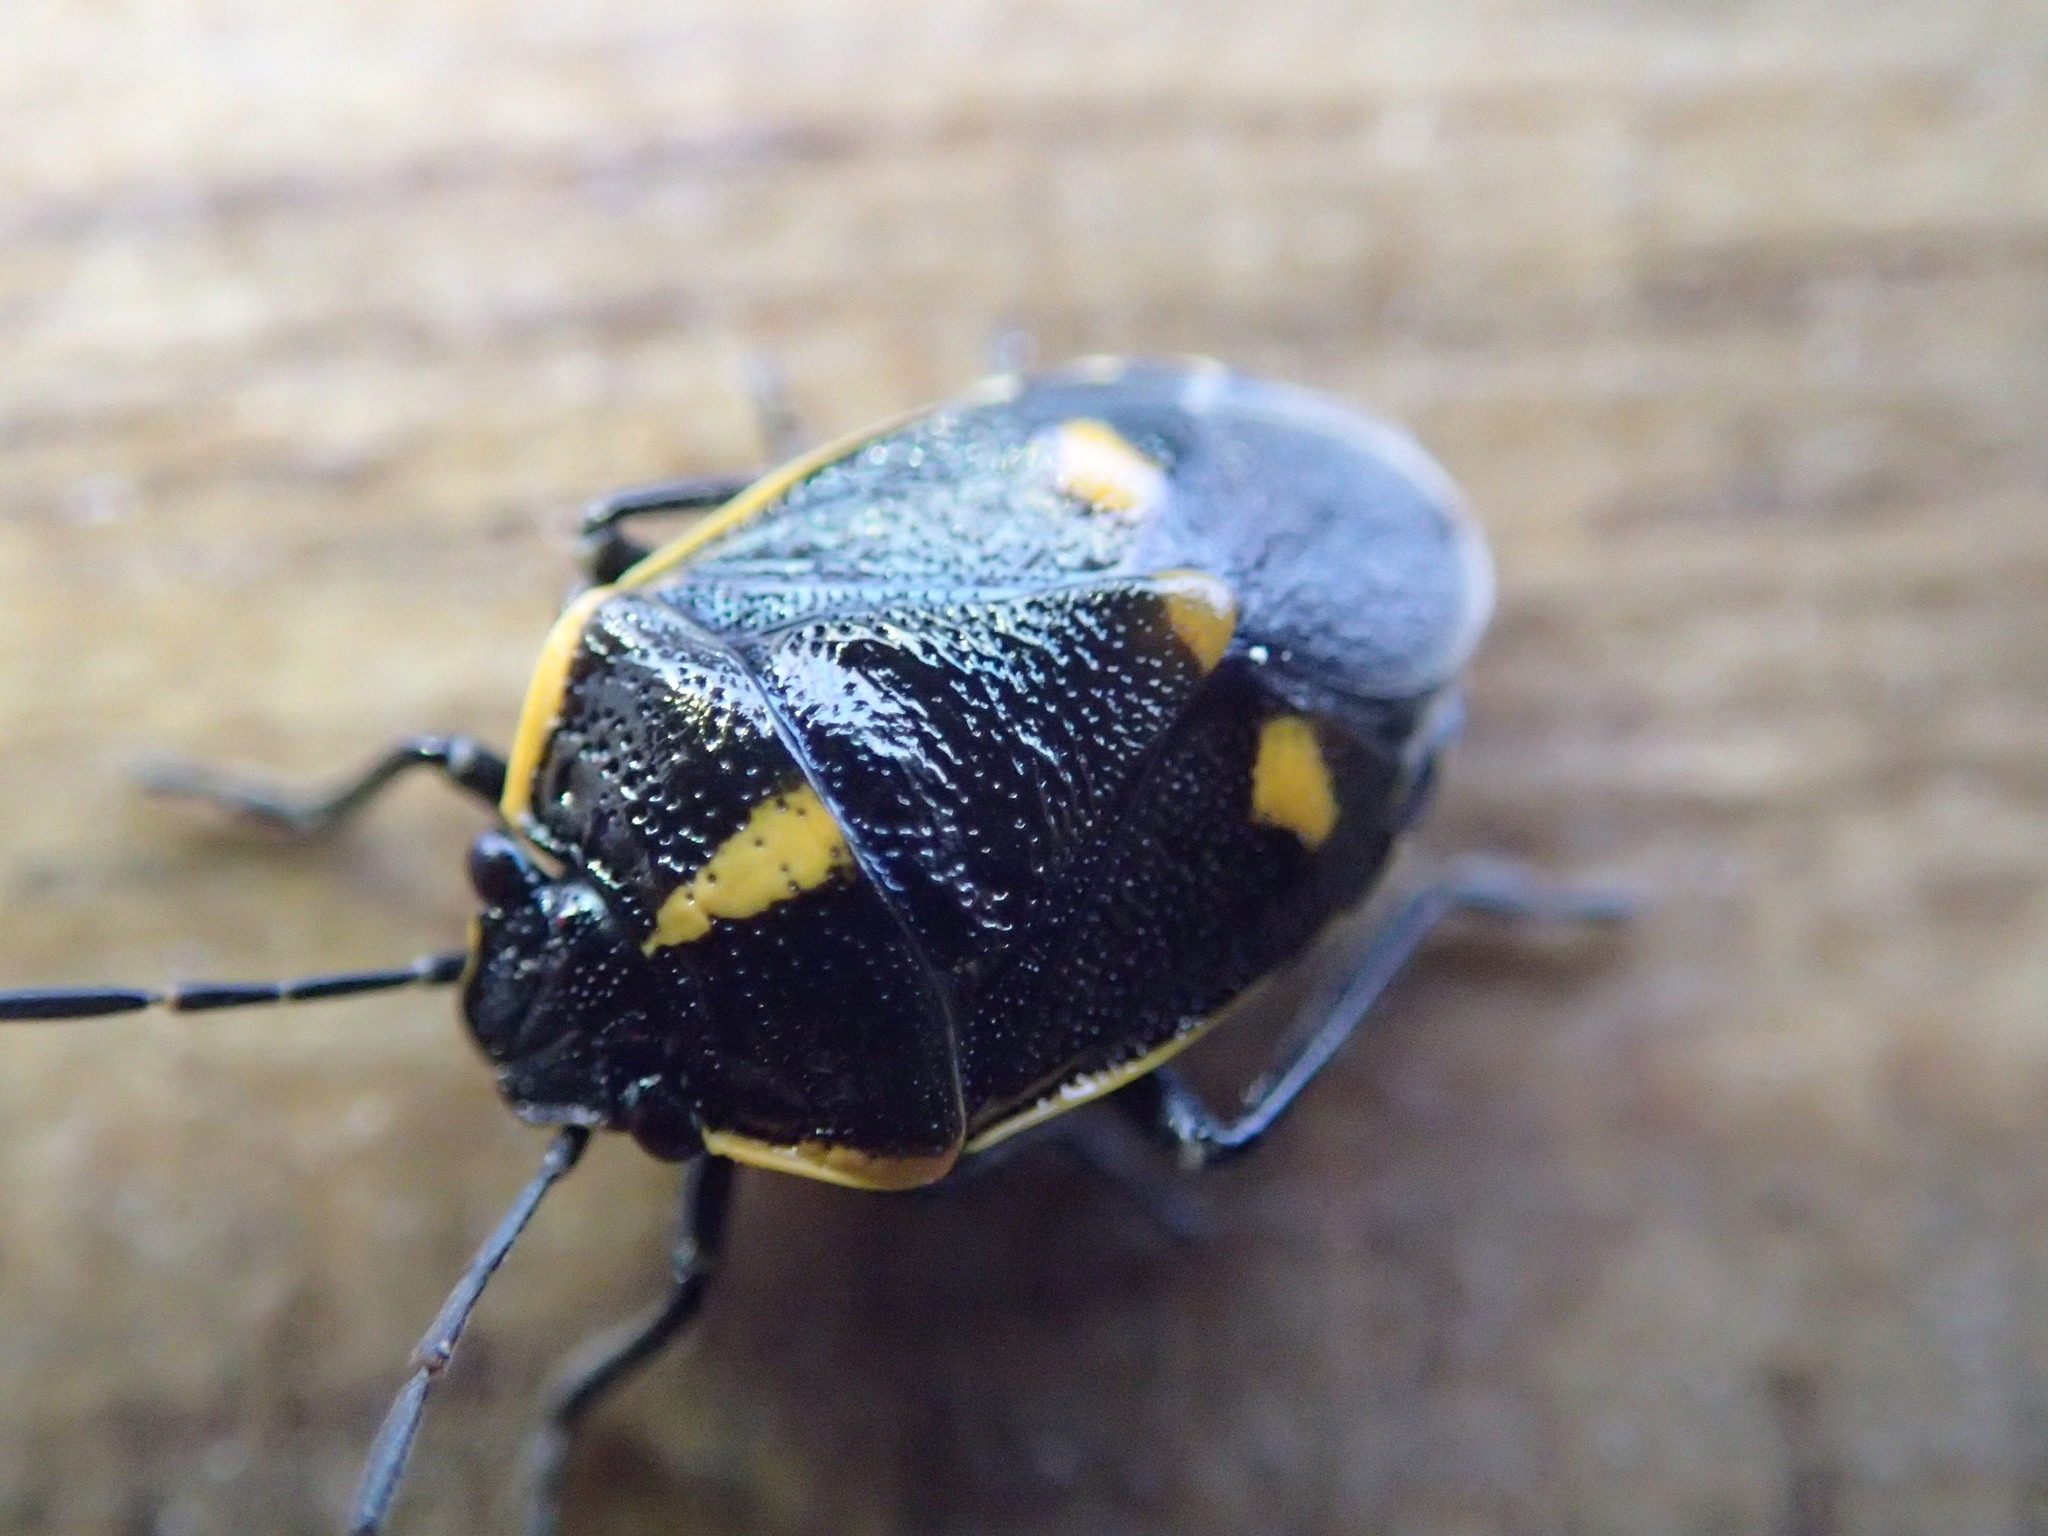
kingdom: Animalia
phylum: Arthropoda
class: Insecta
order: Hemiptera
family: Pentatomidae
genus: Eurydema
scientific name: Eurydema oleracea
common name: Cabbage bug
